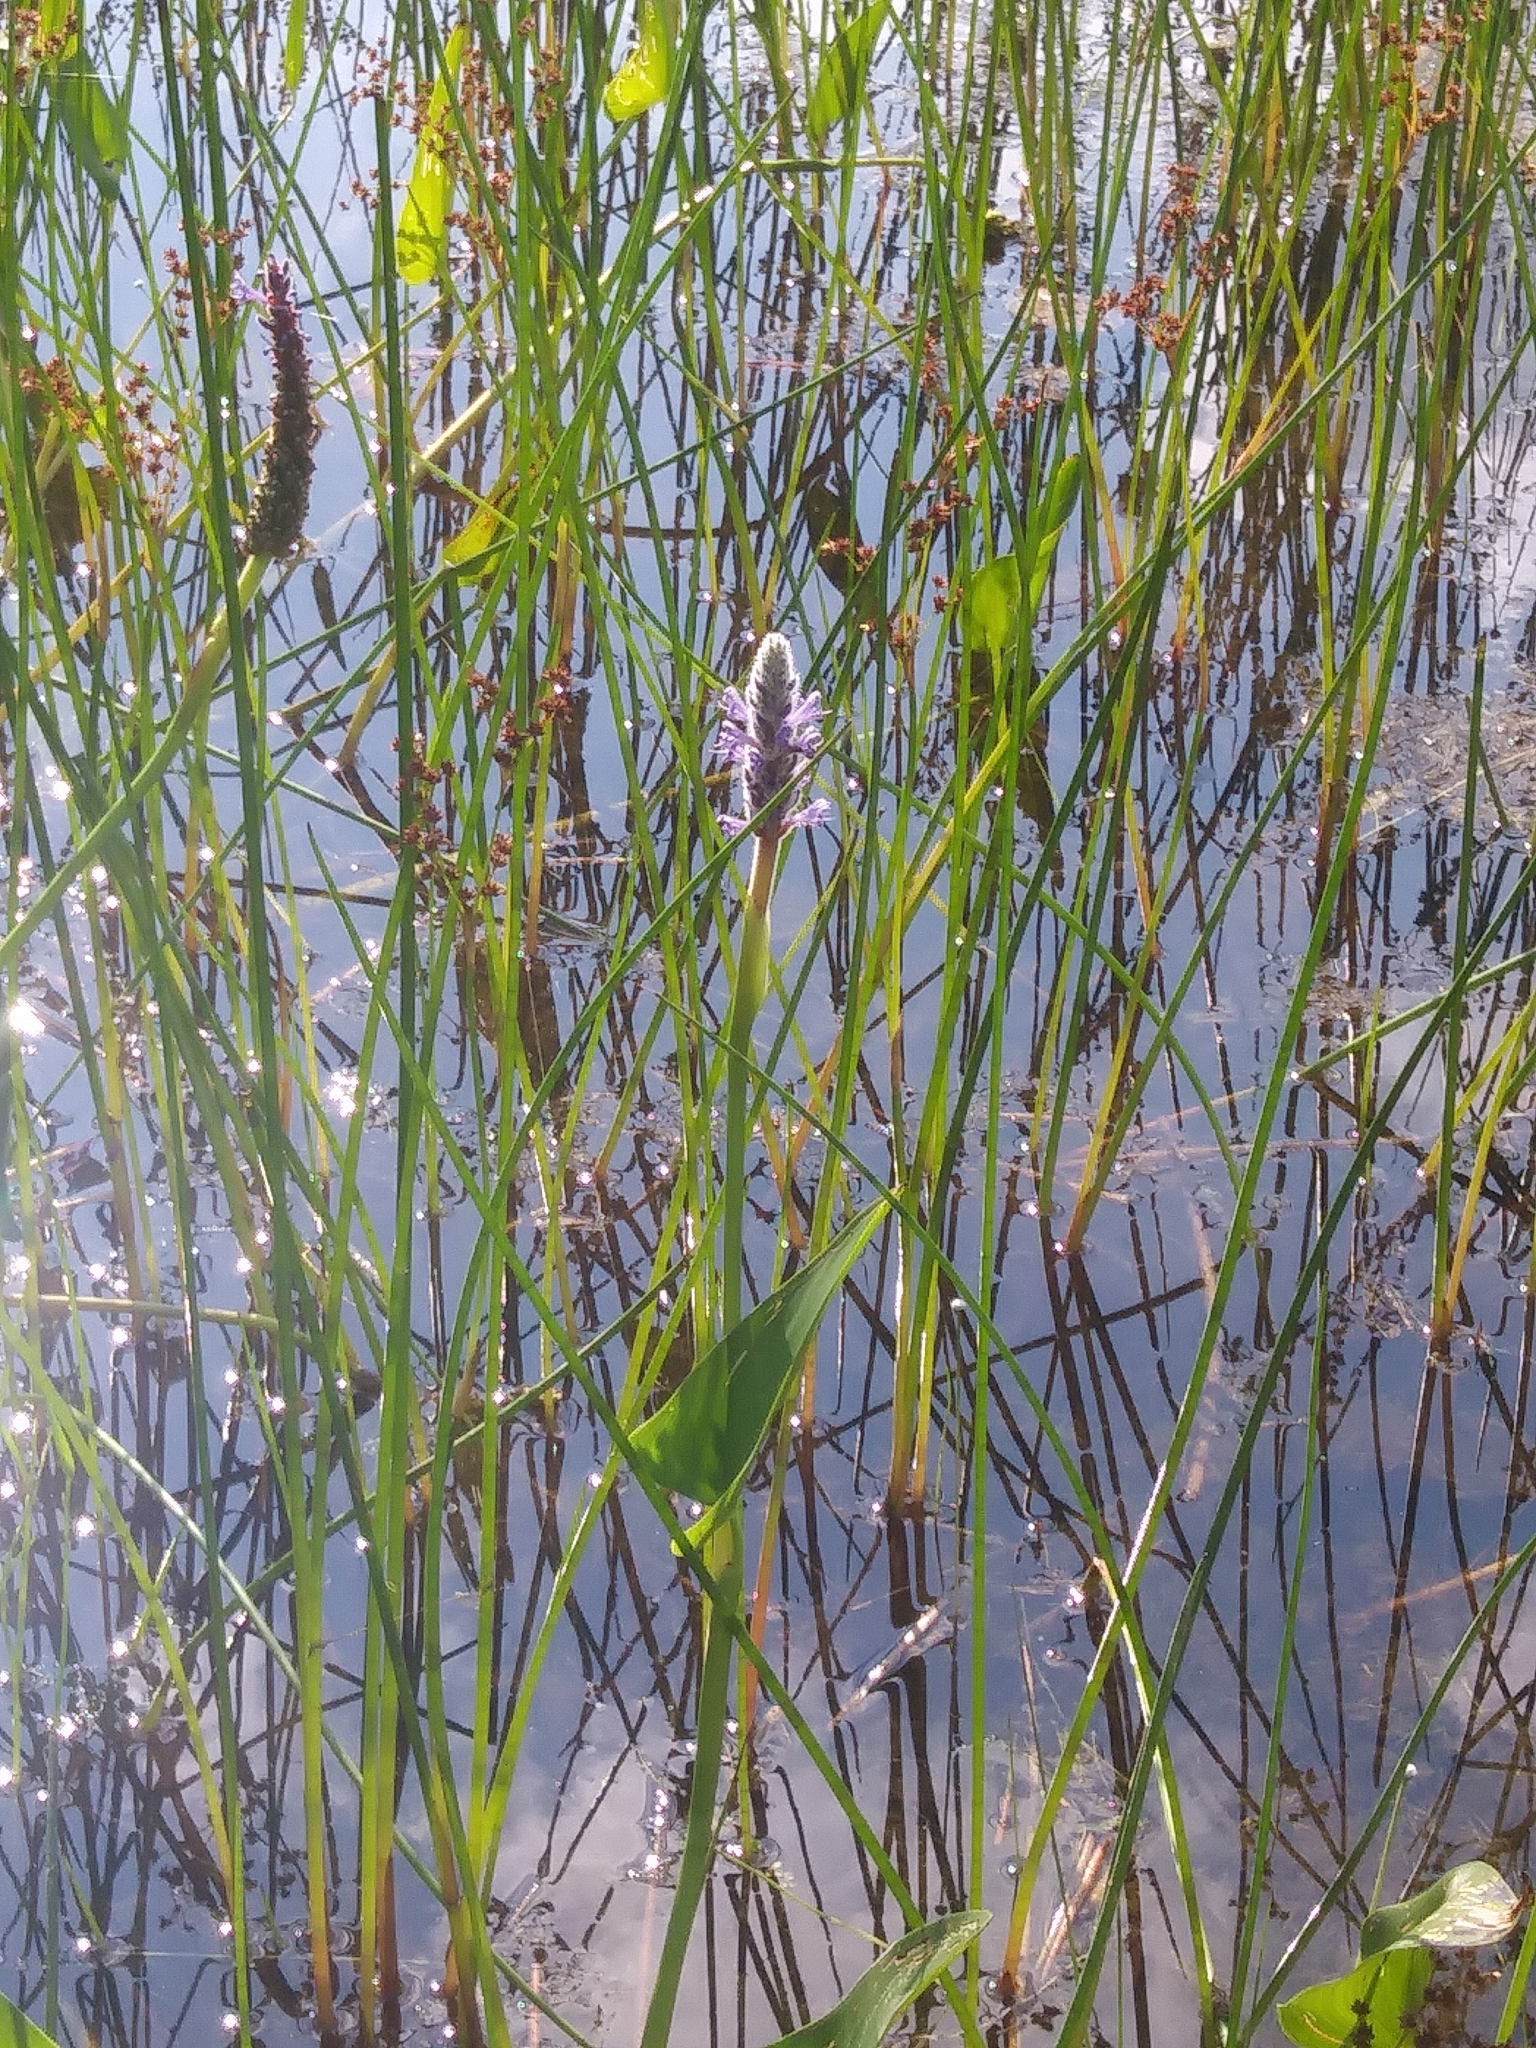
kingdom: Plantae
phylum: Tracheophyta
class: Liliopsida
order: Commelinales
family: Pontederiaceae
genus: Pontederia
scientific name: Pontederia cordata
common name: Pickerelweed
